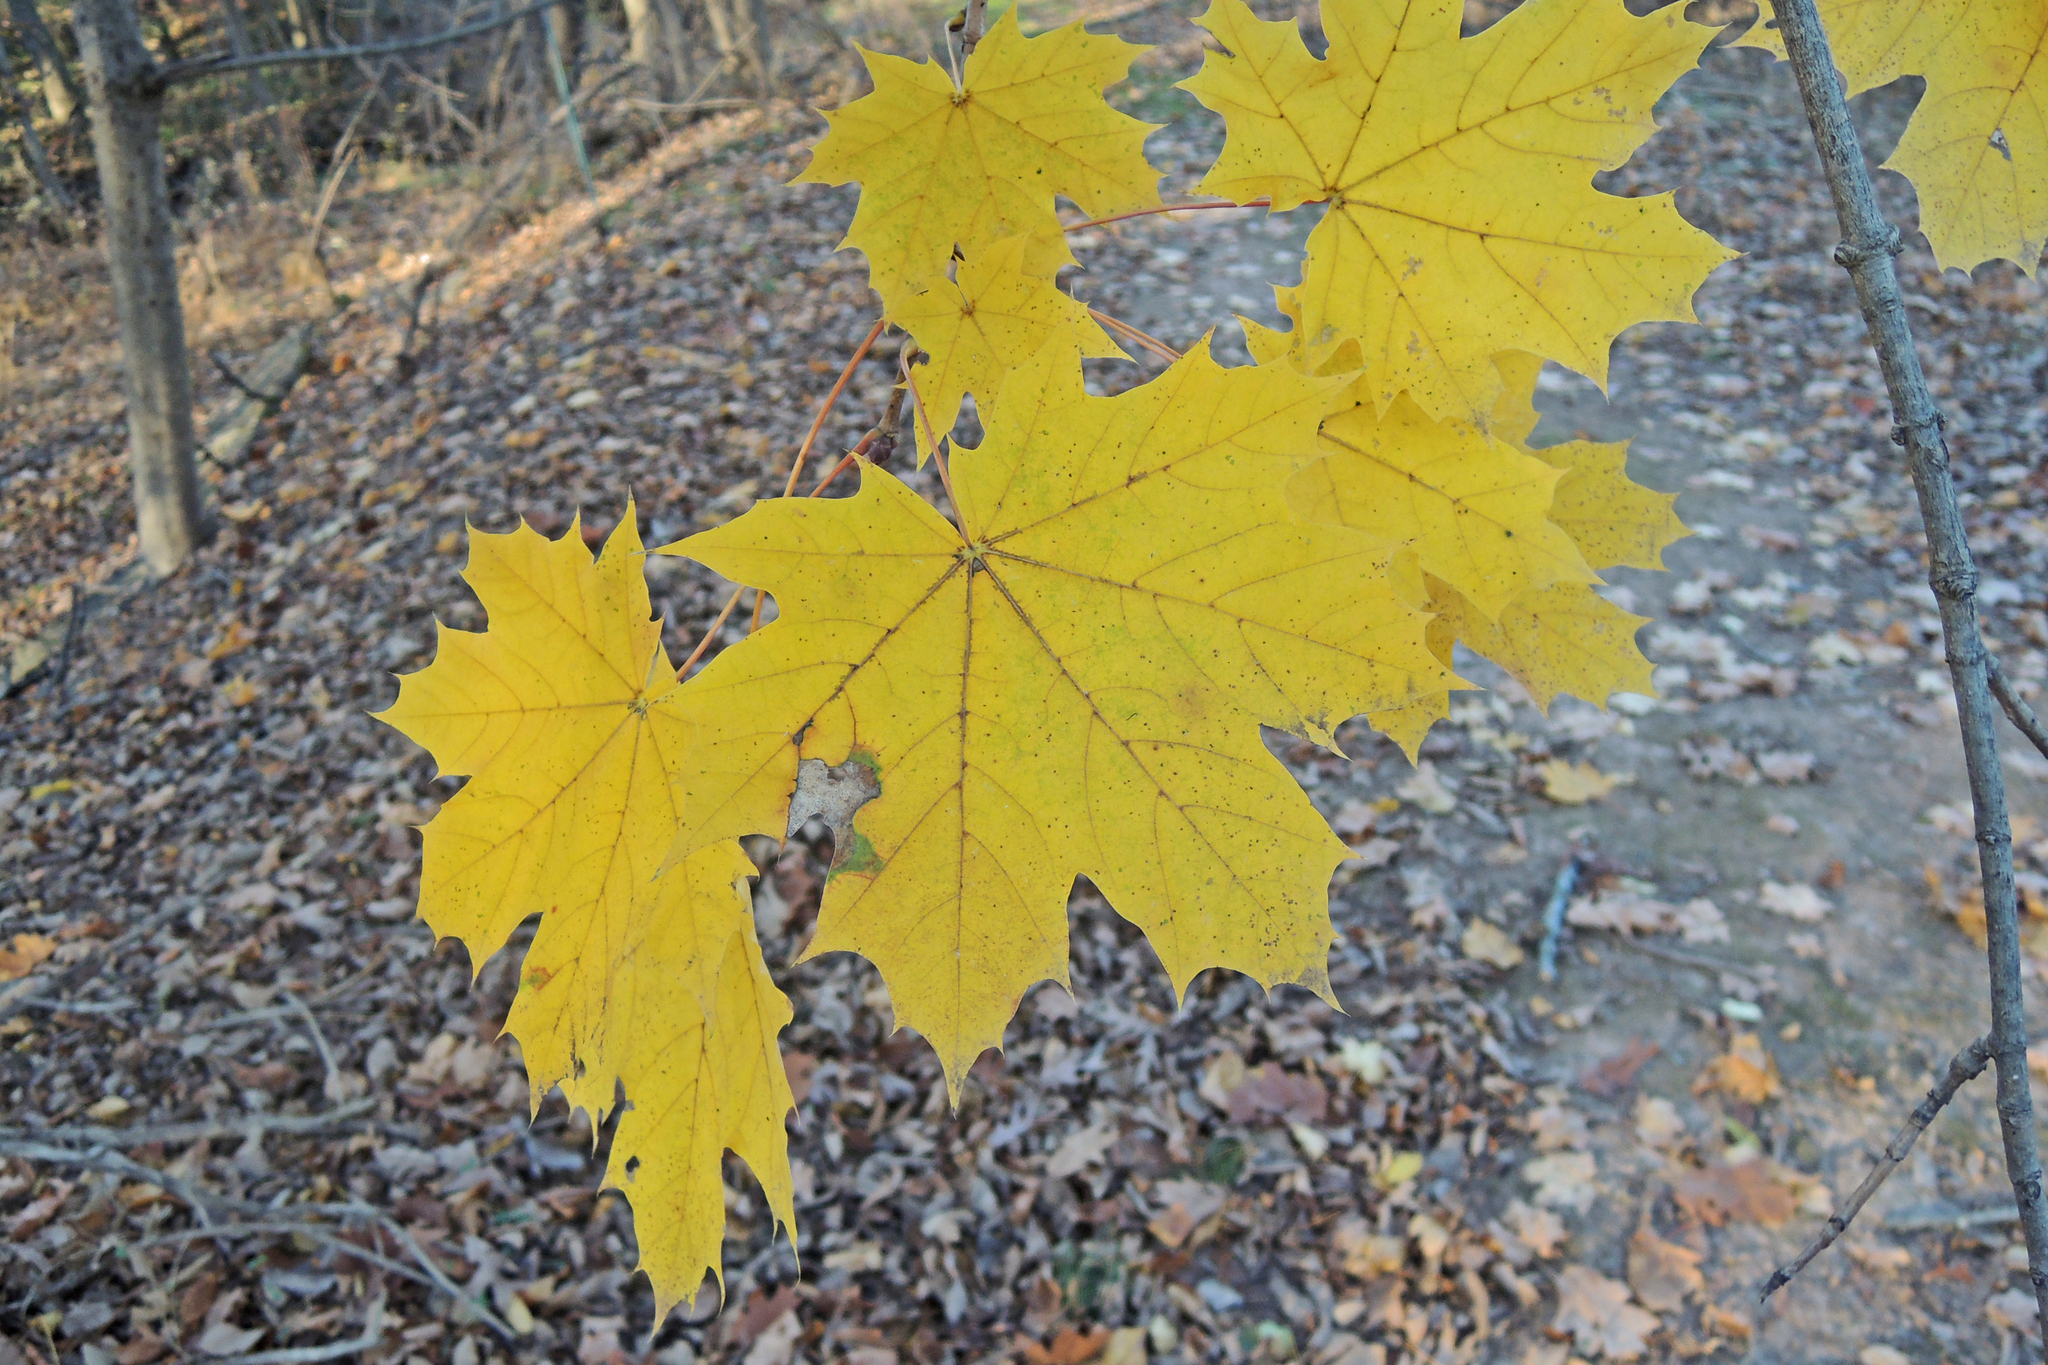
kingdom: Plantae
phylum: Tracheophyta
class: Magnoliopsida
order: Sapindales
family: Sapindaceae
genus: Acer
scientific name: Acer platanoides
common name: Norway maple
